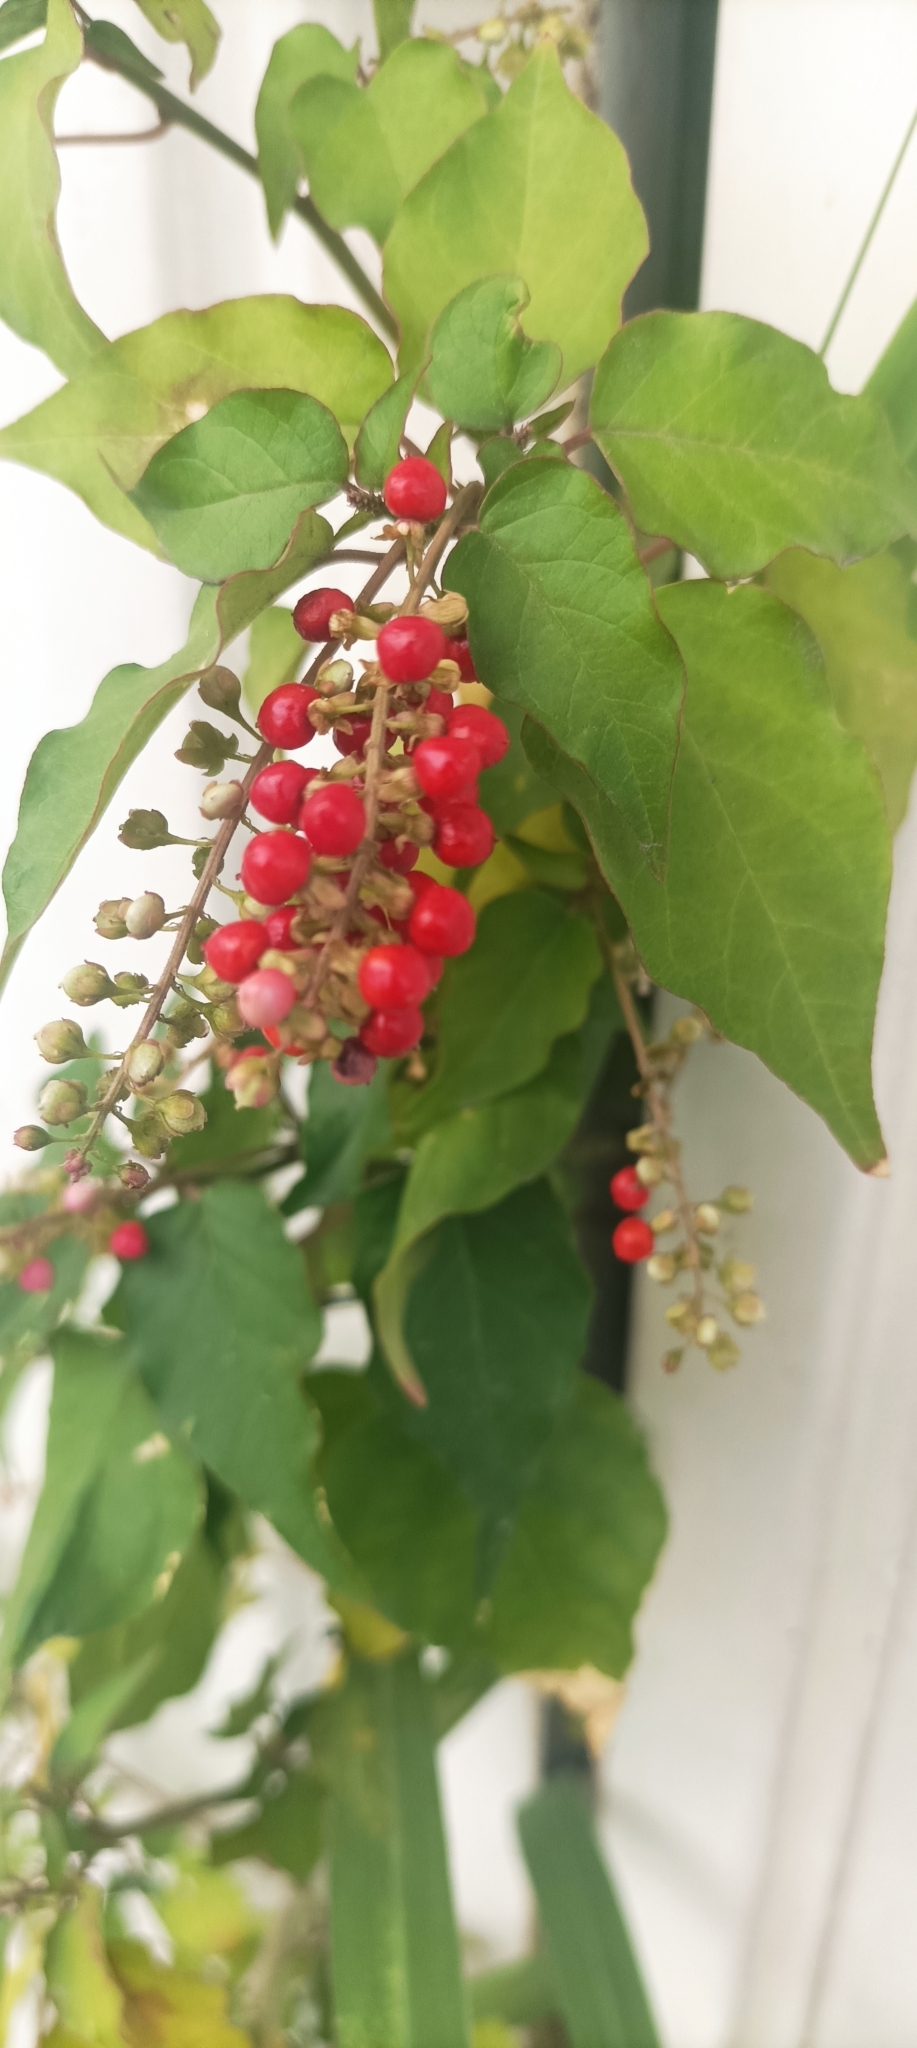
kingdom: Plantae
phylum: Tracheophyta
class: Magnoliopsida
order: Caryophyllales
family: Phytolaccaceae
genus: Rivina
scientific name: Rivina humilis
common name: Rougeplant
